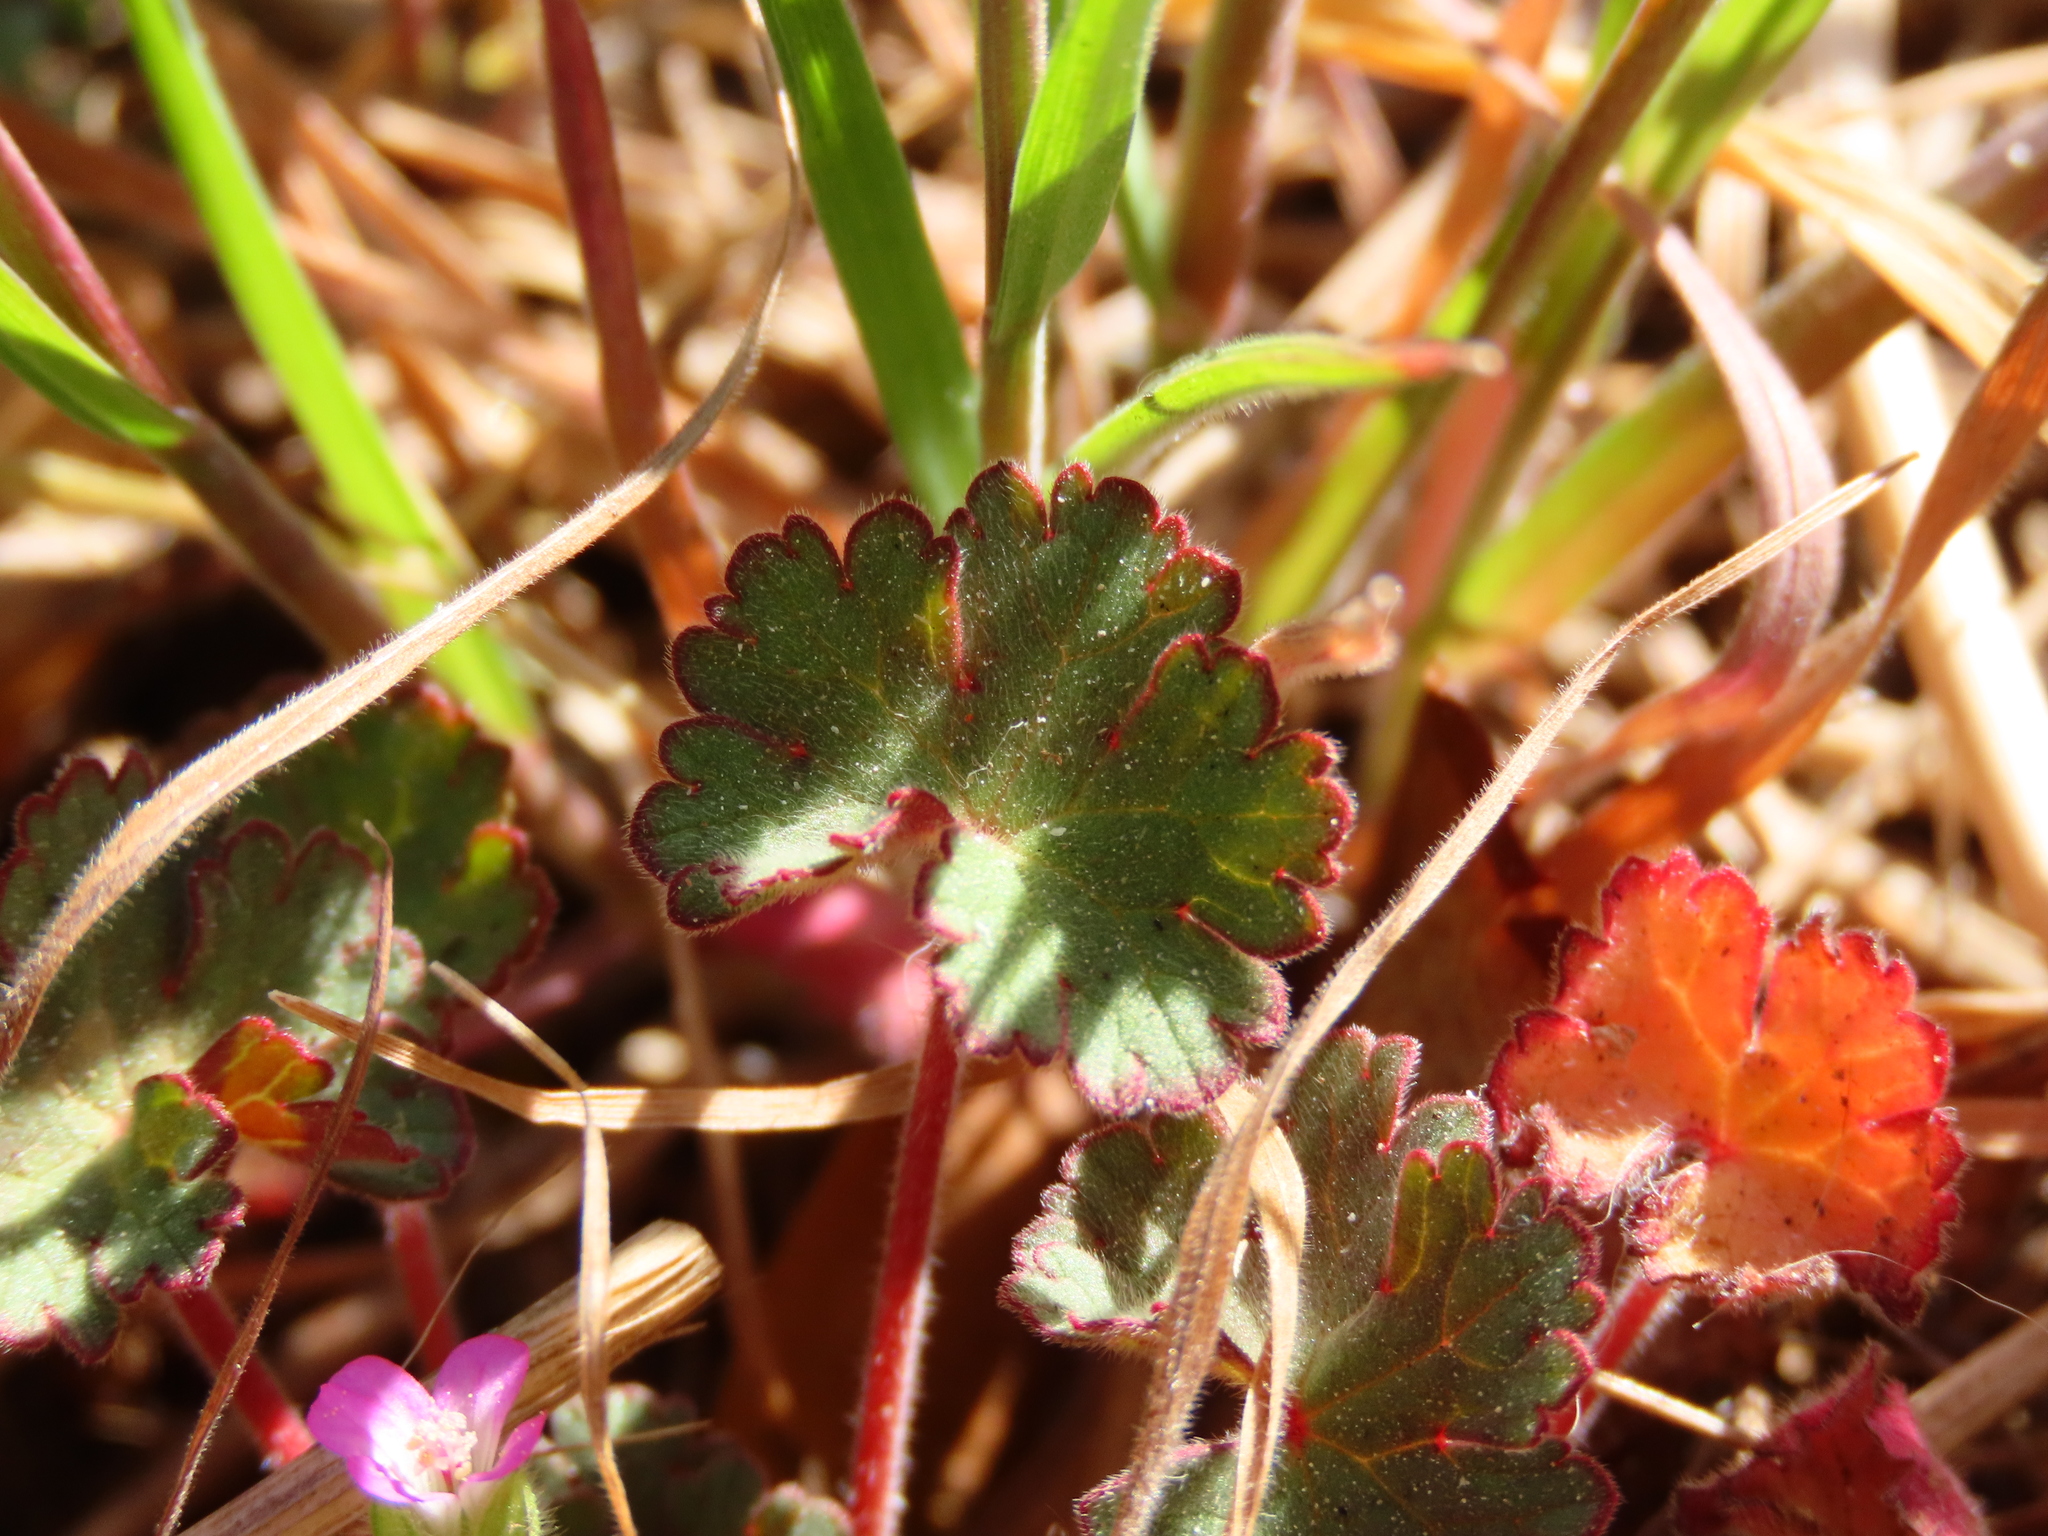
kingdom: Plantae
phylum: Tracheophyta
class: Magnoliopsida
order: Geraniales
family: Geraniaceae
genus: Geranium
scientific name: Geranium rotundifolium
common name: Round-leaved crane's-bill
